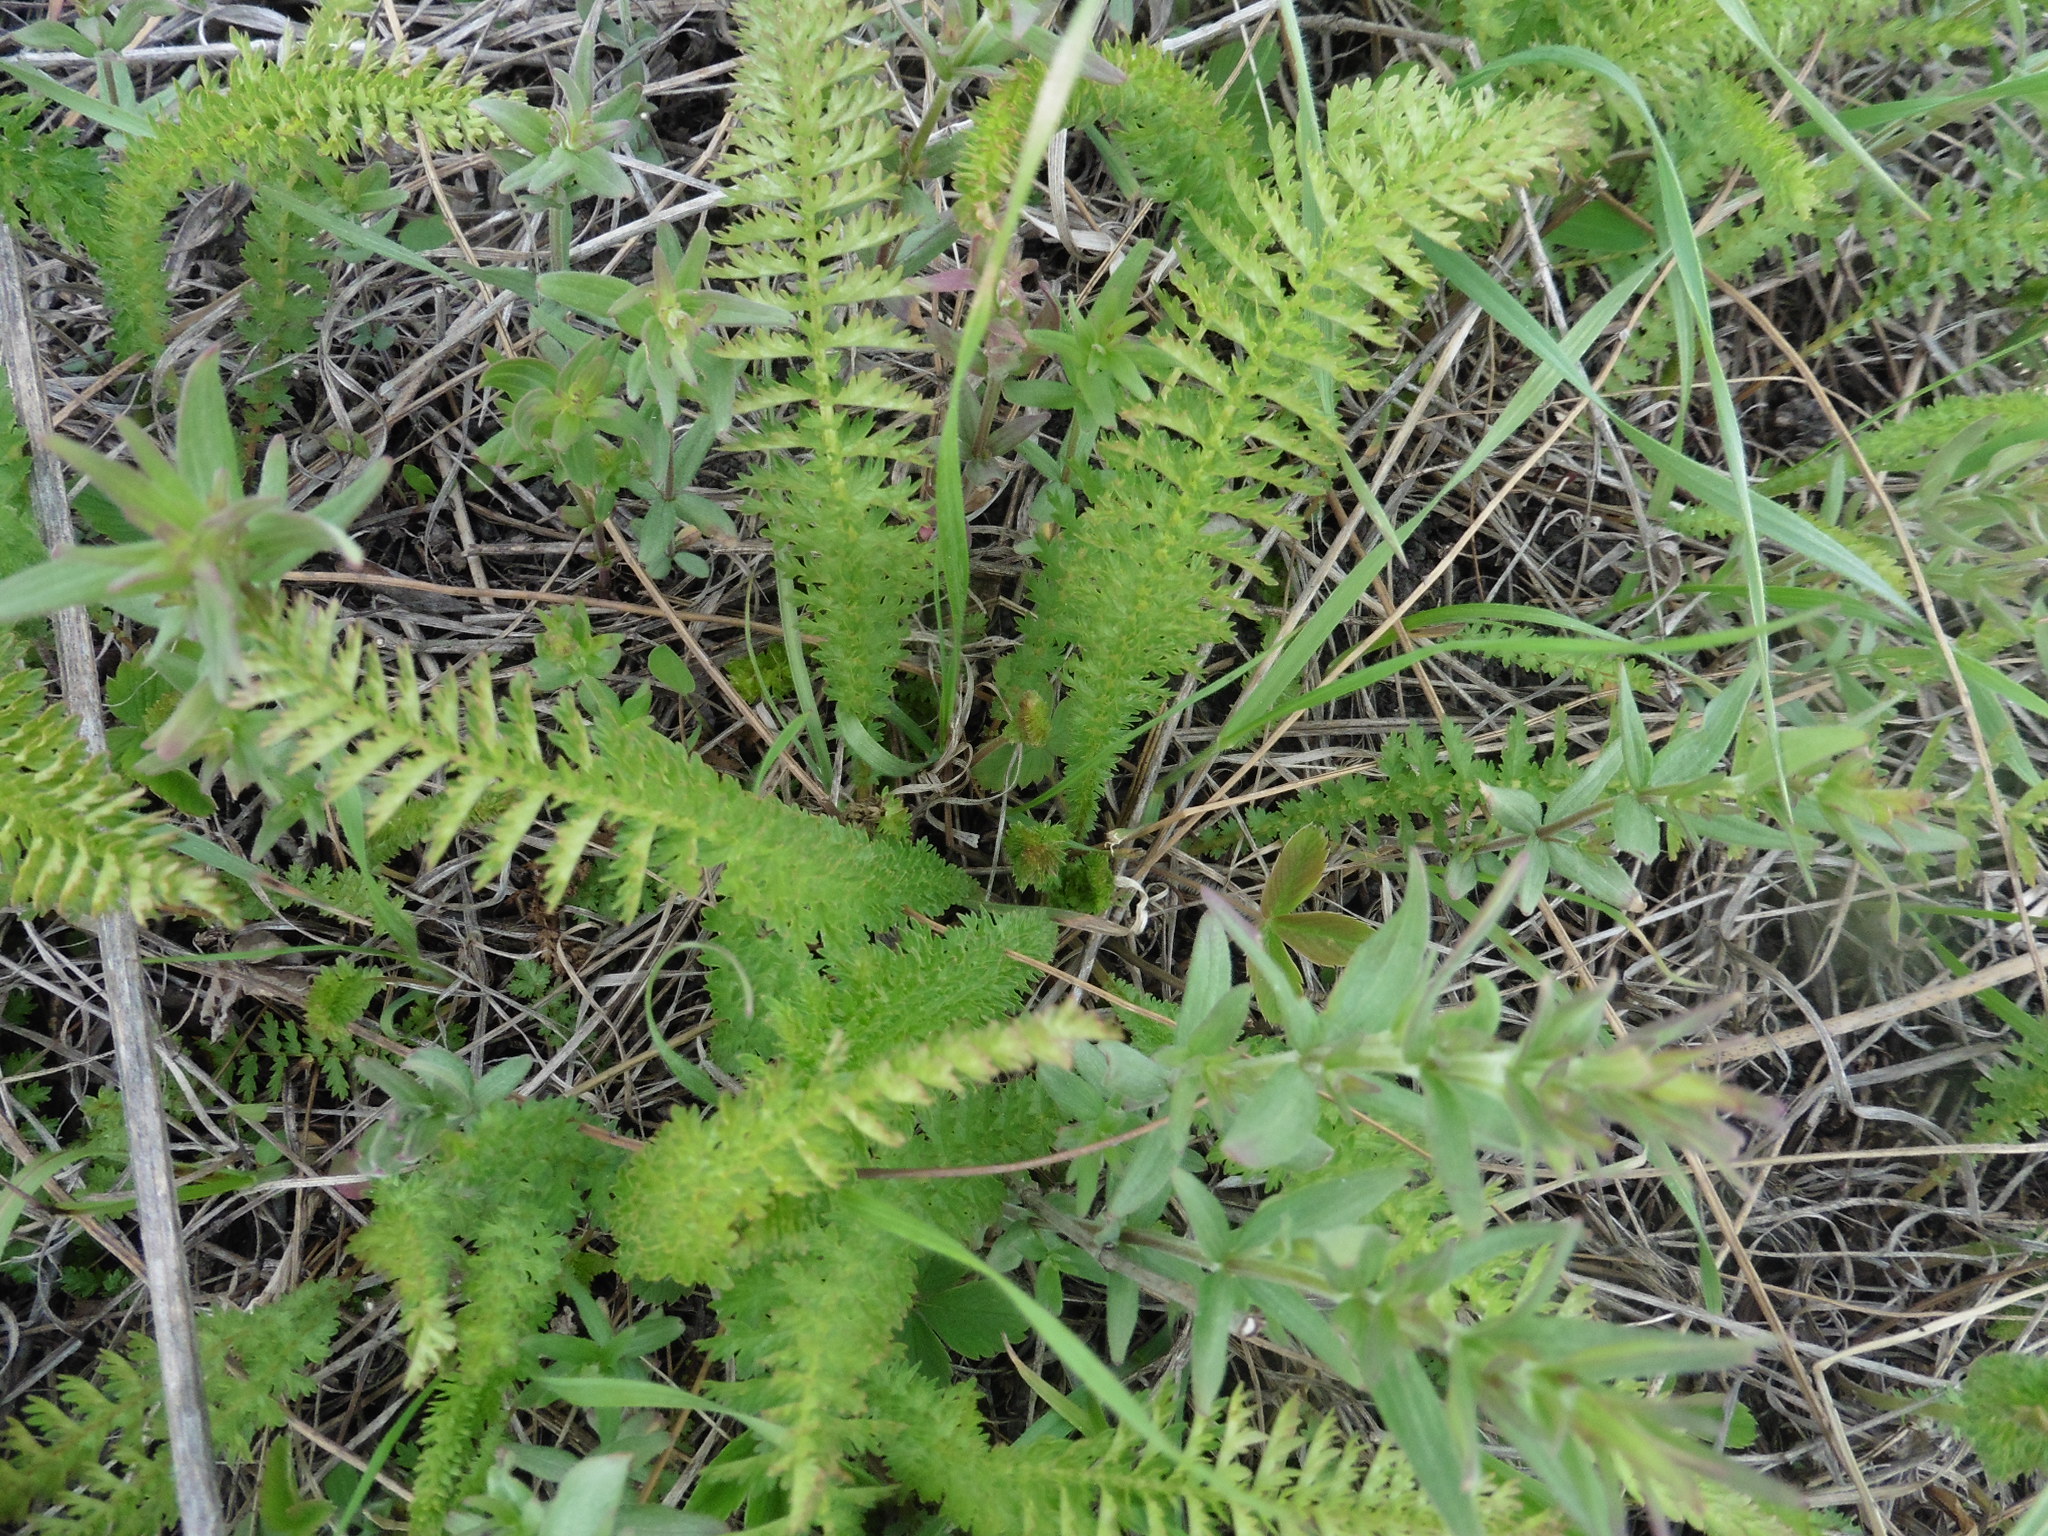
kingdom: Plantae
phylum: Tracheophyta
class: Magnoliopsida
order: Rosales
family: Rosaceae
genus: Filipendula
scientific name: Filipendula vulgaris
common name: Dropwort
